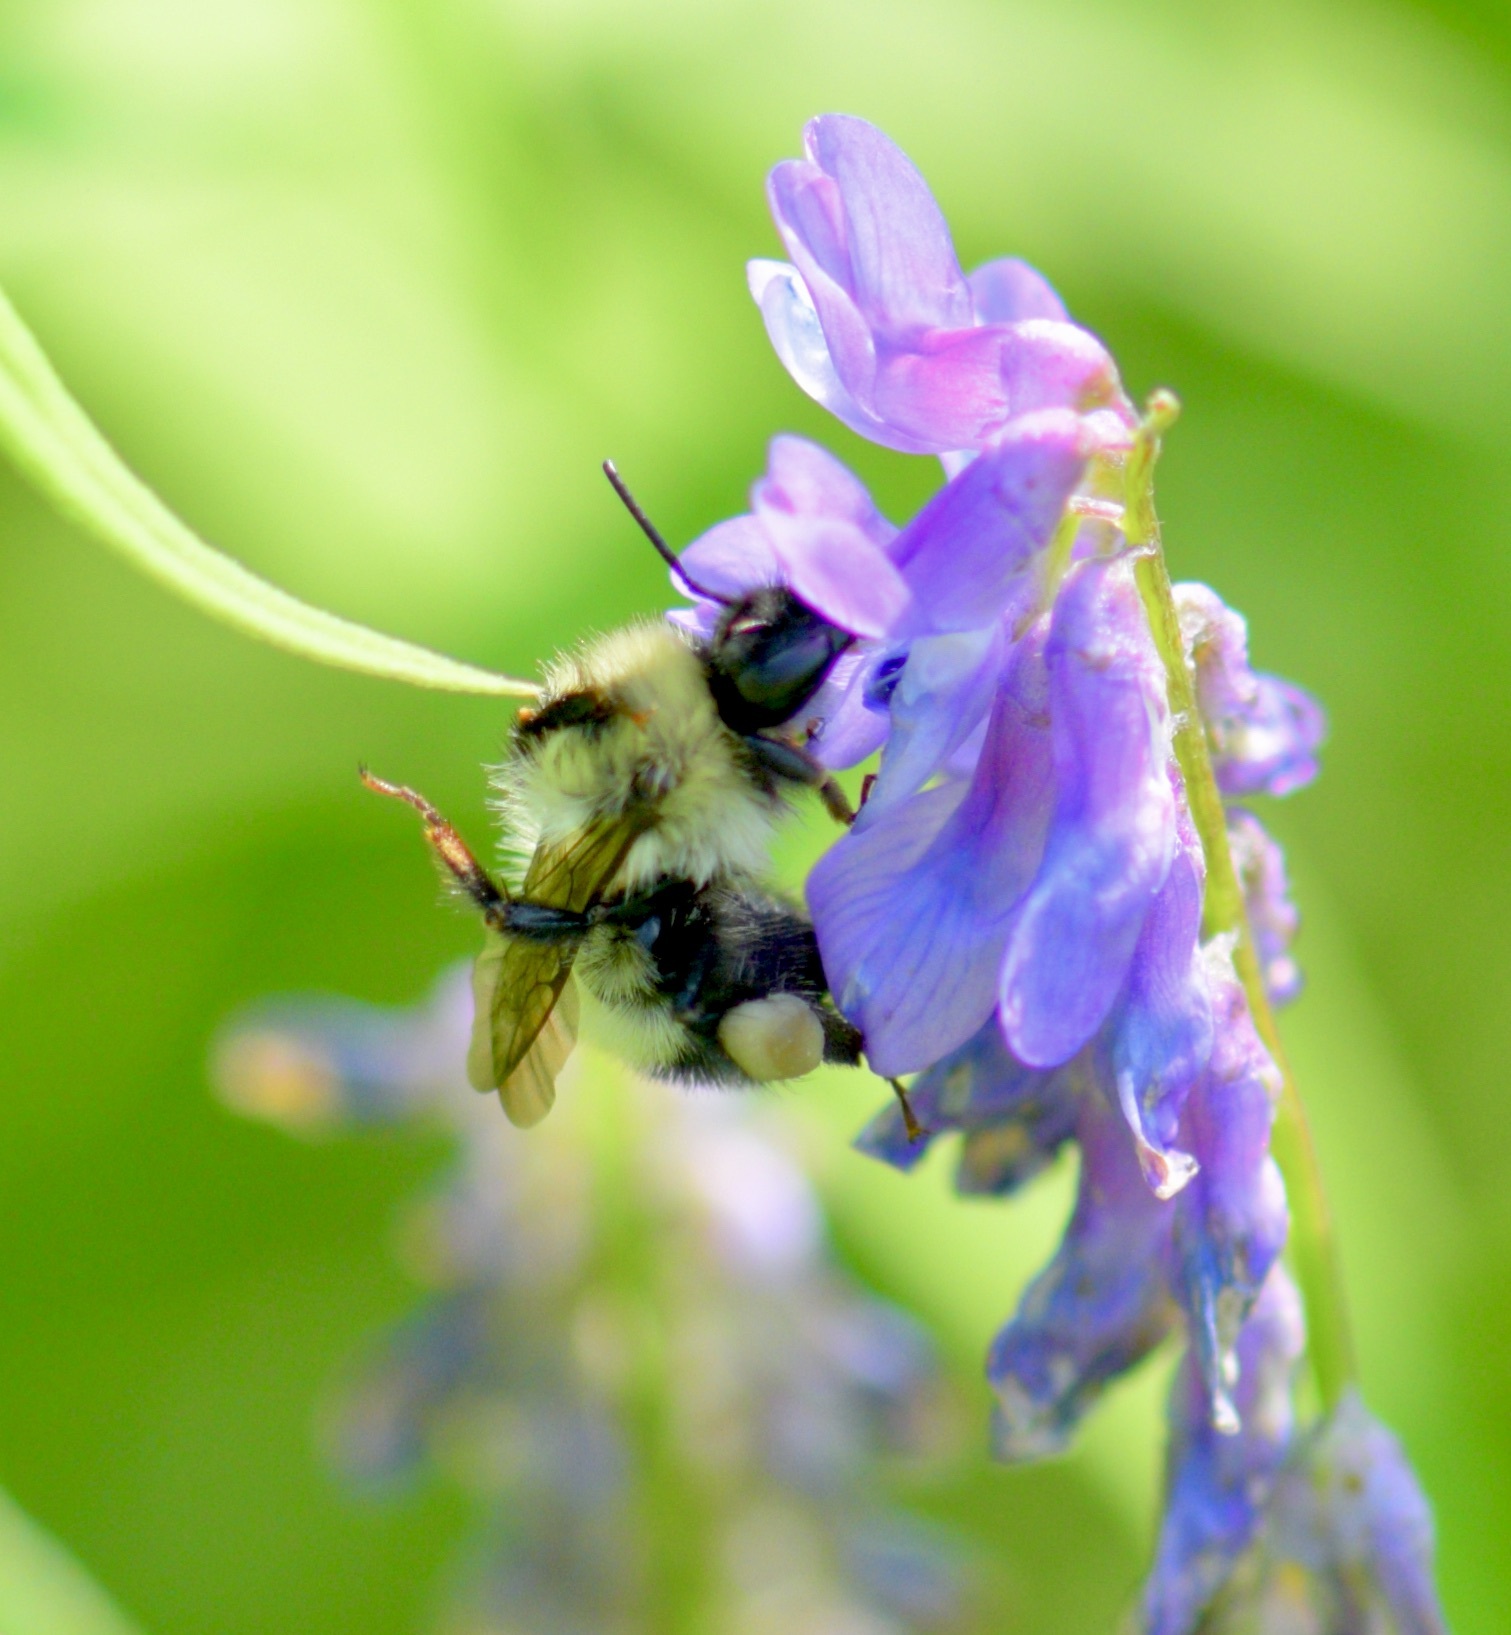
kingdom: Animalia
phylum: Arthropoda
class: Insecta
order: Hymenoptera
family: Apidae
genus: Pyrobombus
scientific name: Pyrobombus
